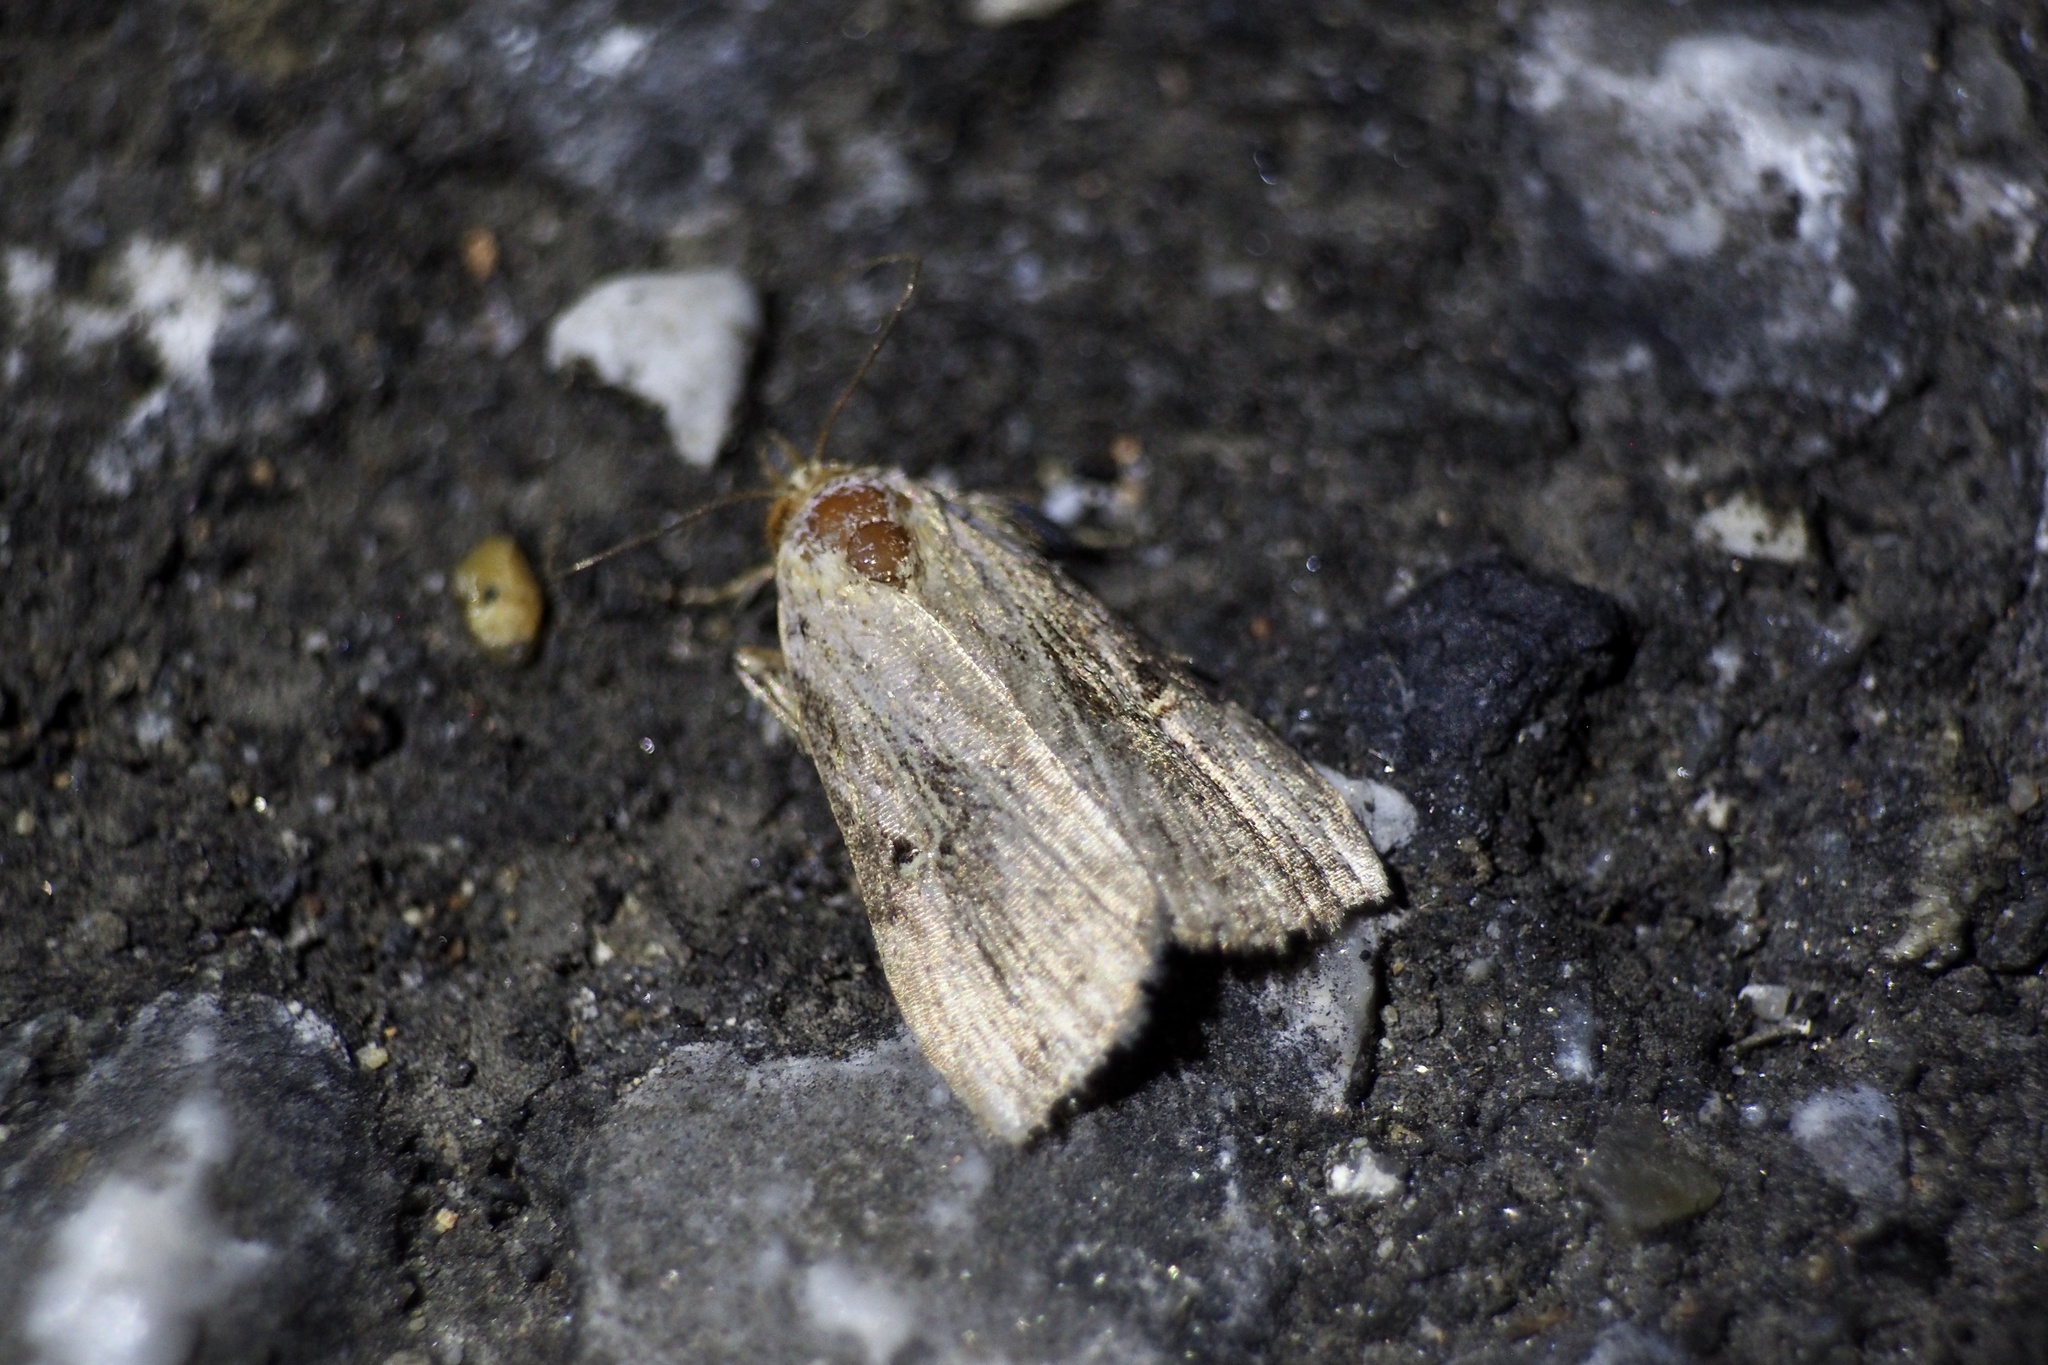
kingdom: Animalia
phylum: Arthropoda
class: Insecta
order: Lepidoptera
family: Noctuidae
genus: Microxyla
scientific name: Microxyla confusa
